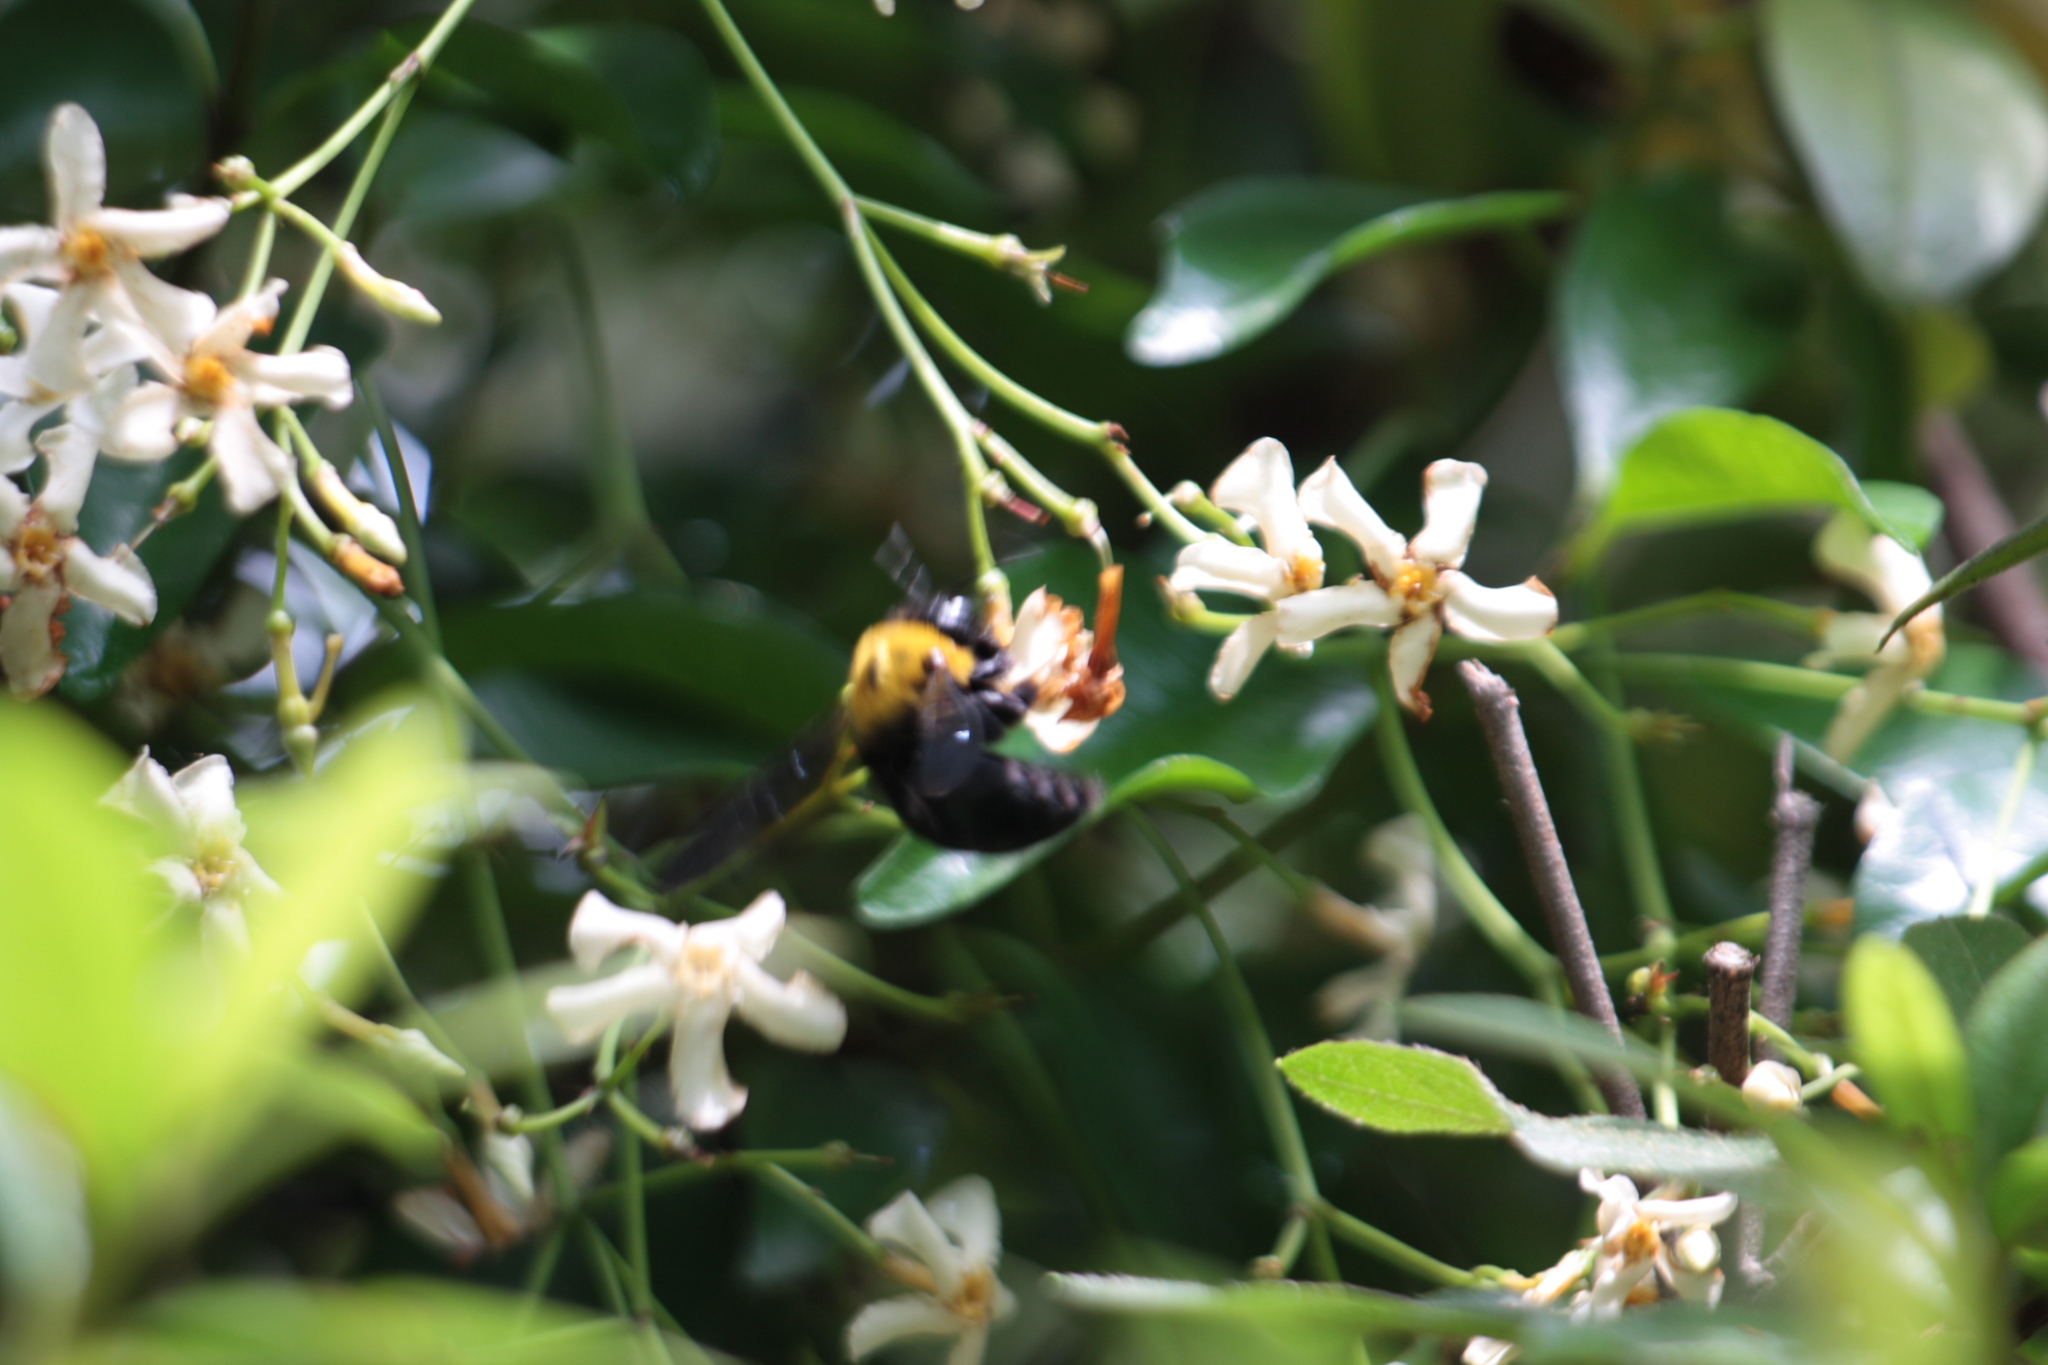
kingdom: Animalia
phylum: Arthropoda
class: Insecta
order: Hymenoptera
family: Apidae
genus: Xylocopa
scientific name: Xylocopa appendiculata
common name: Japanese carpenter bee
